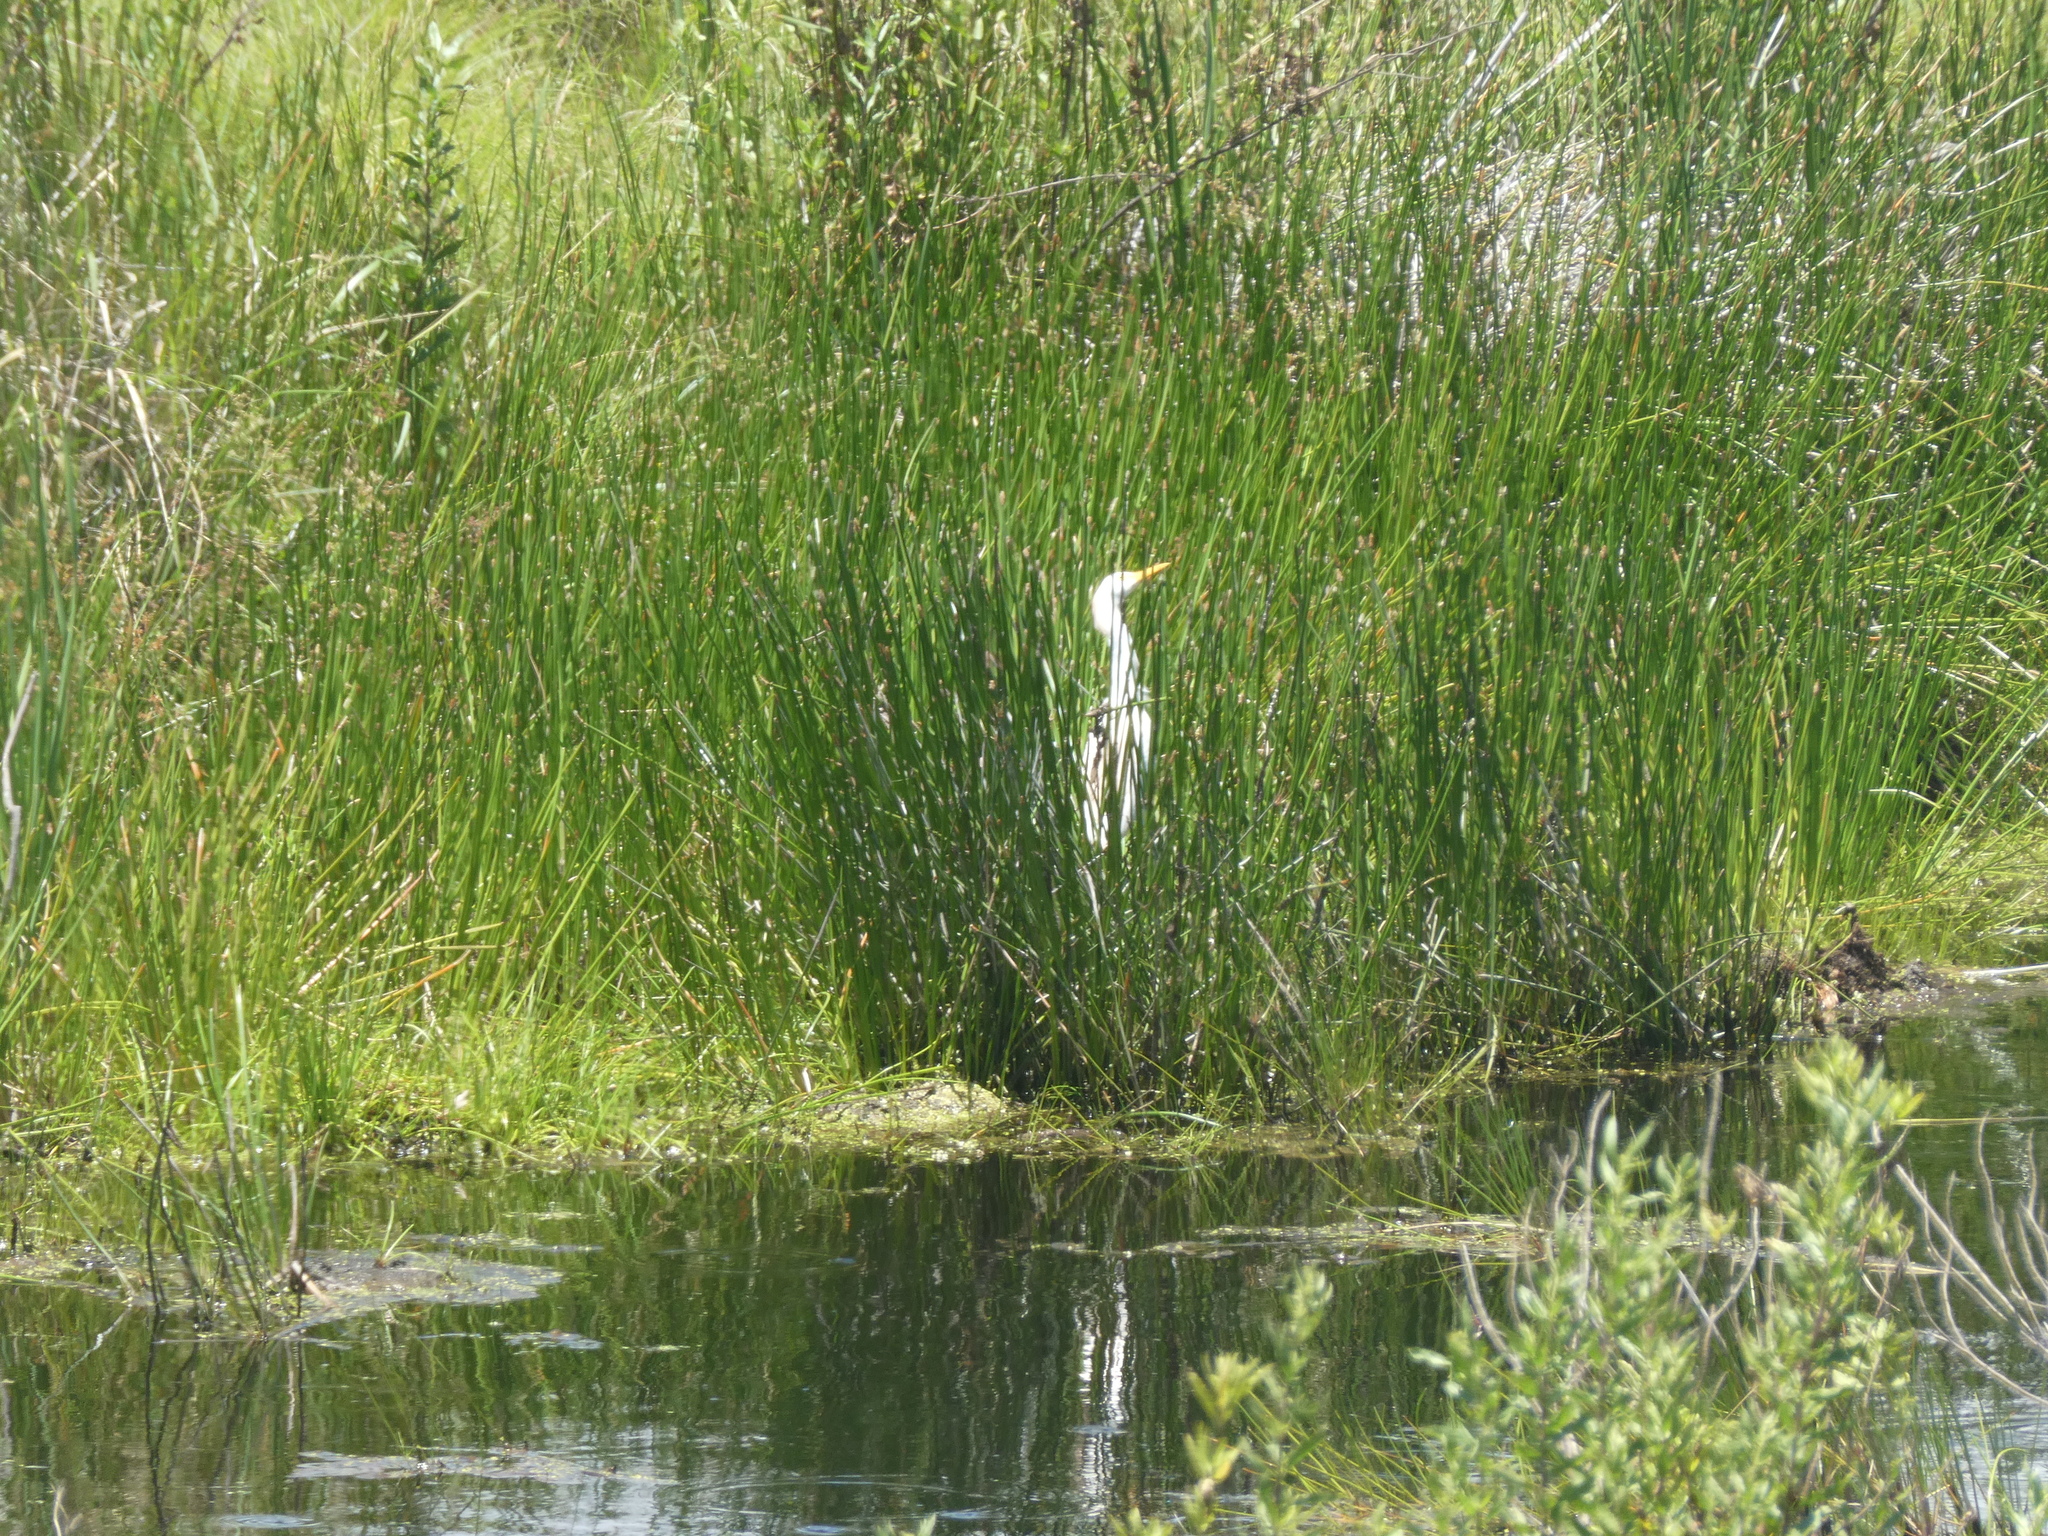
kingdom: Animalia
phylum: Chordata
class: Aves
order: Pelecaniformes
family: Ardeidae
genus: Bubulcus
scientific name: Bubulcus ibis
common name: Cattle egret
